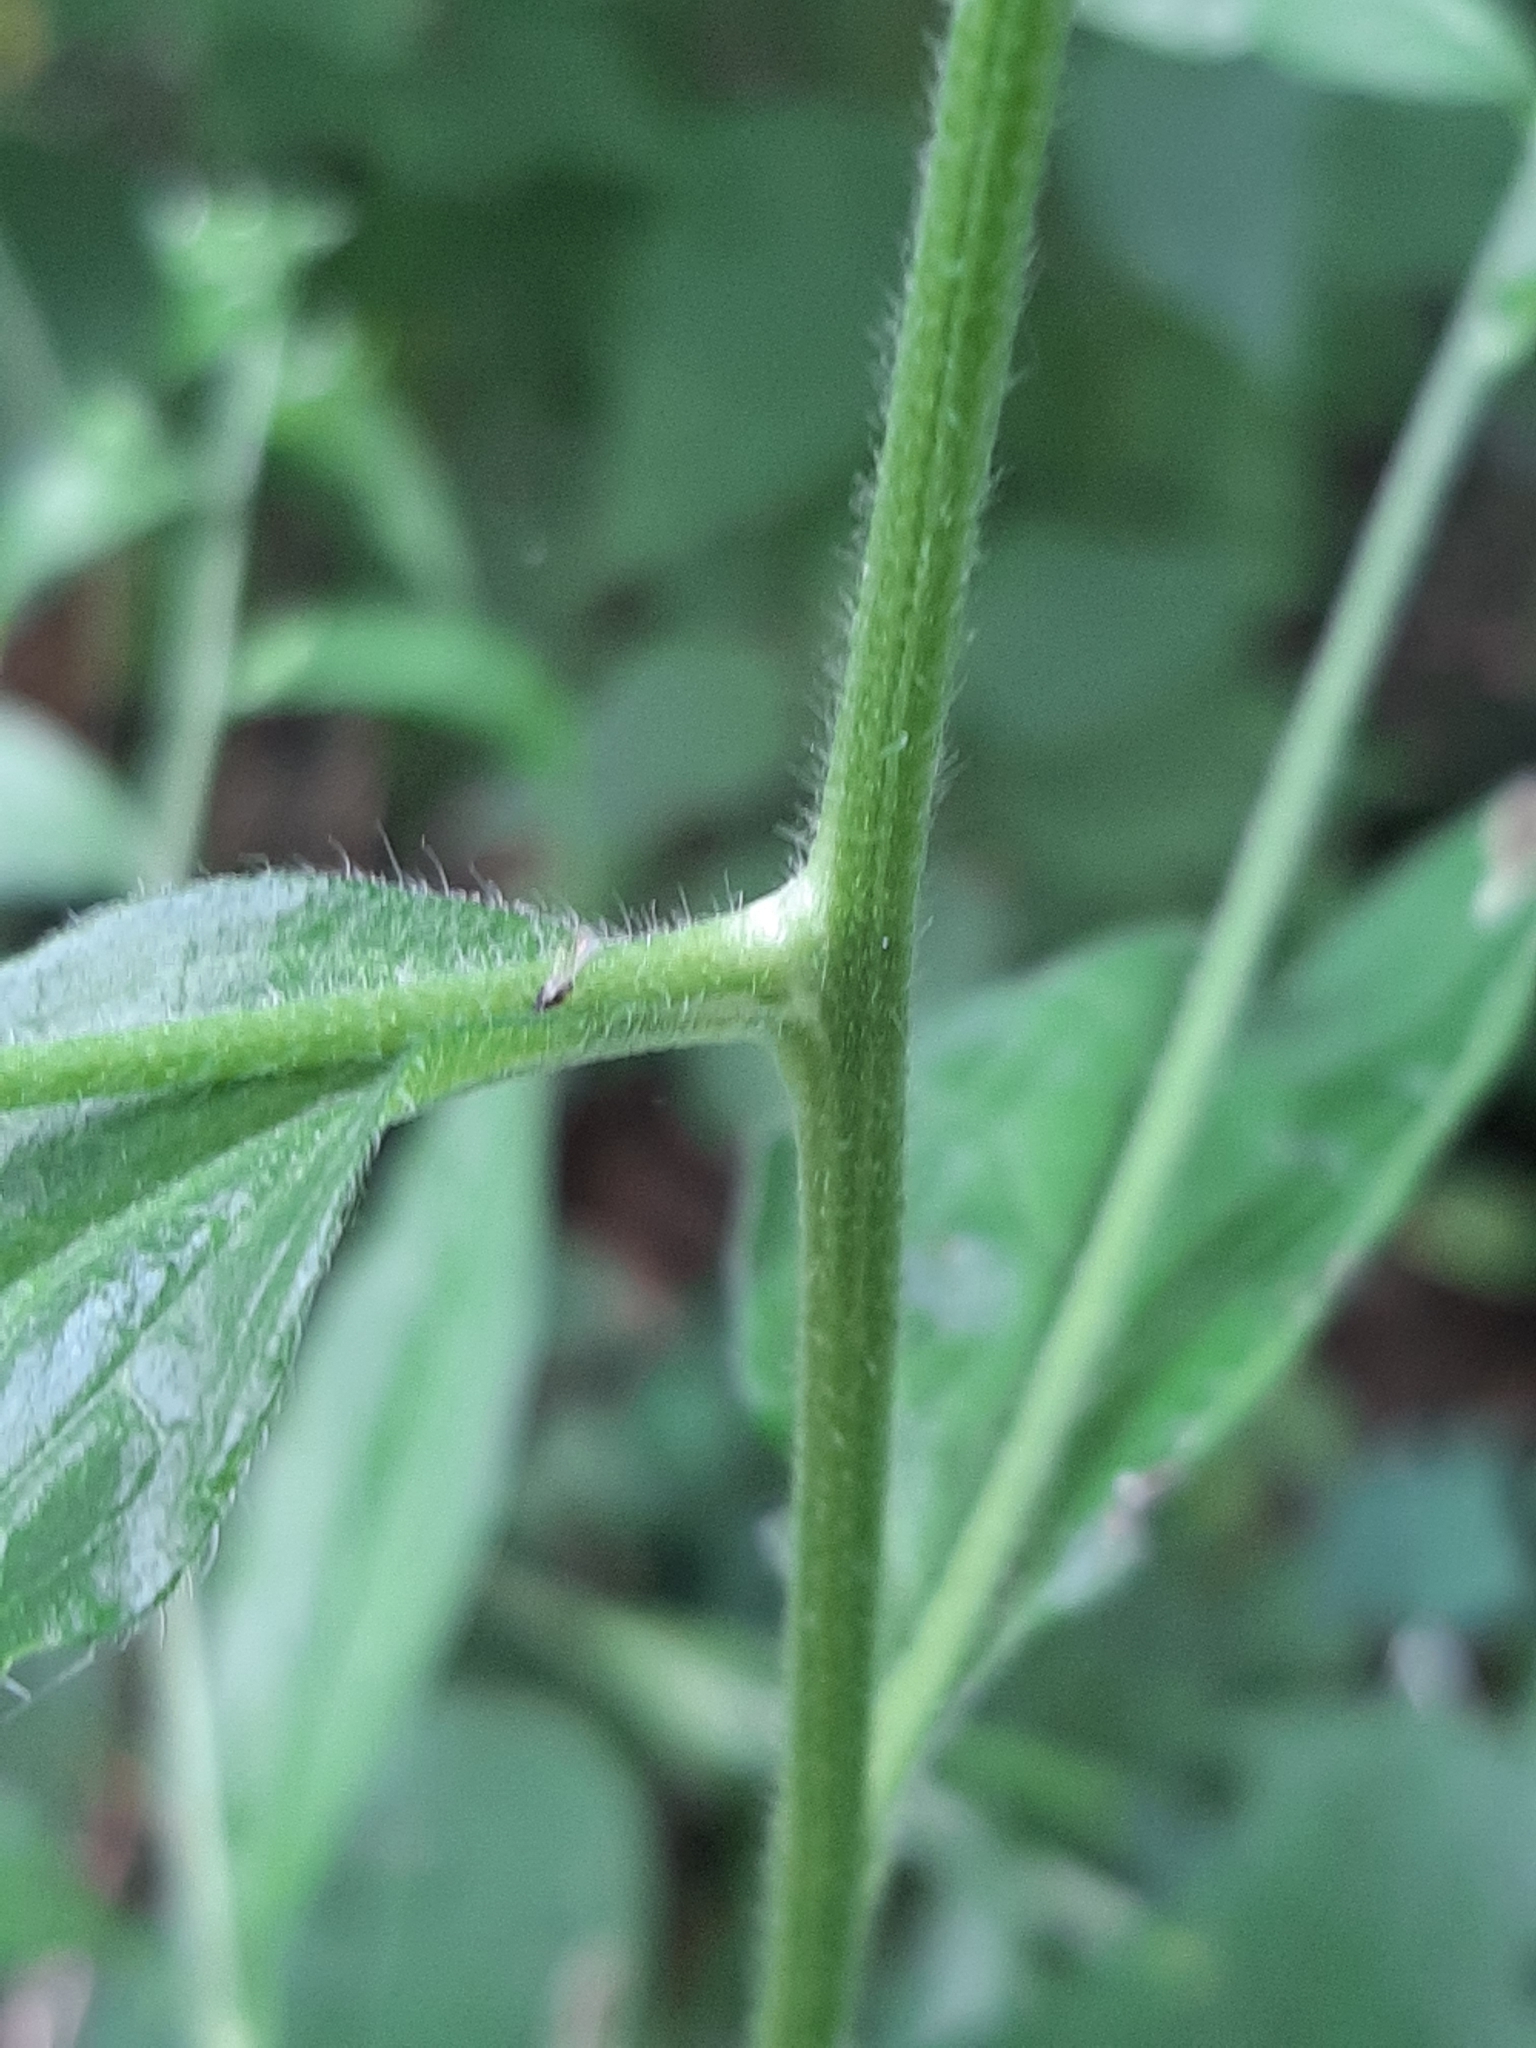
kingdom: Plantae
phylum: Tracheophyta
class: Magnoliopsida
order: Boraginales
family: Boraginaceae
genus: Hackelia
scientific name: Hackelia virginiana
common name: Beggar's-lice
